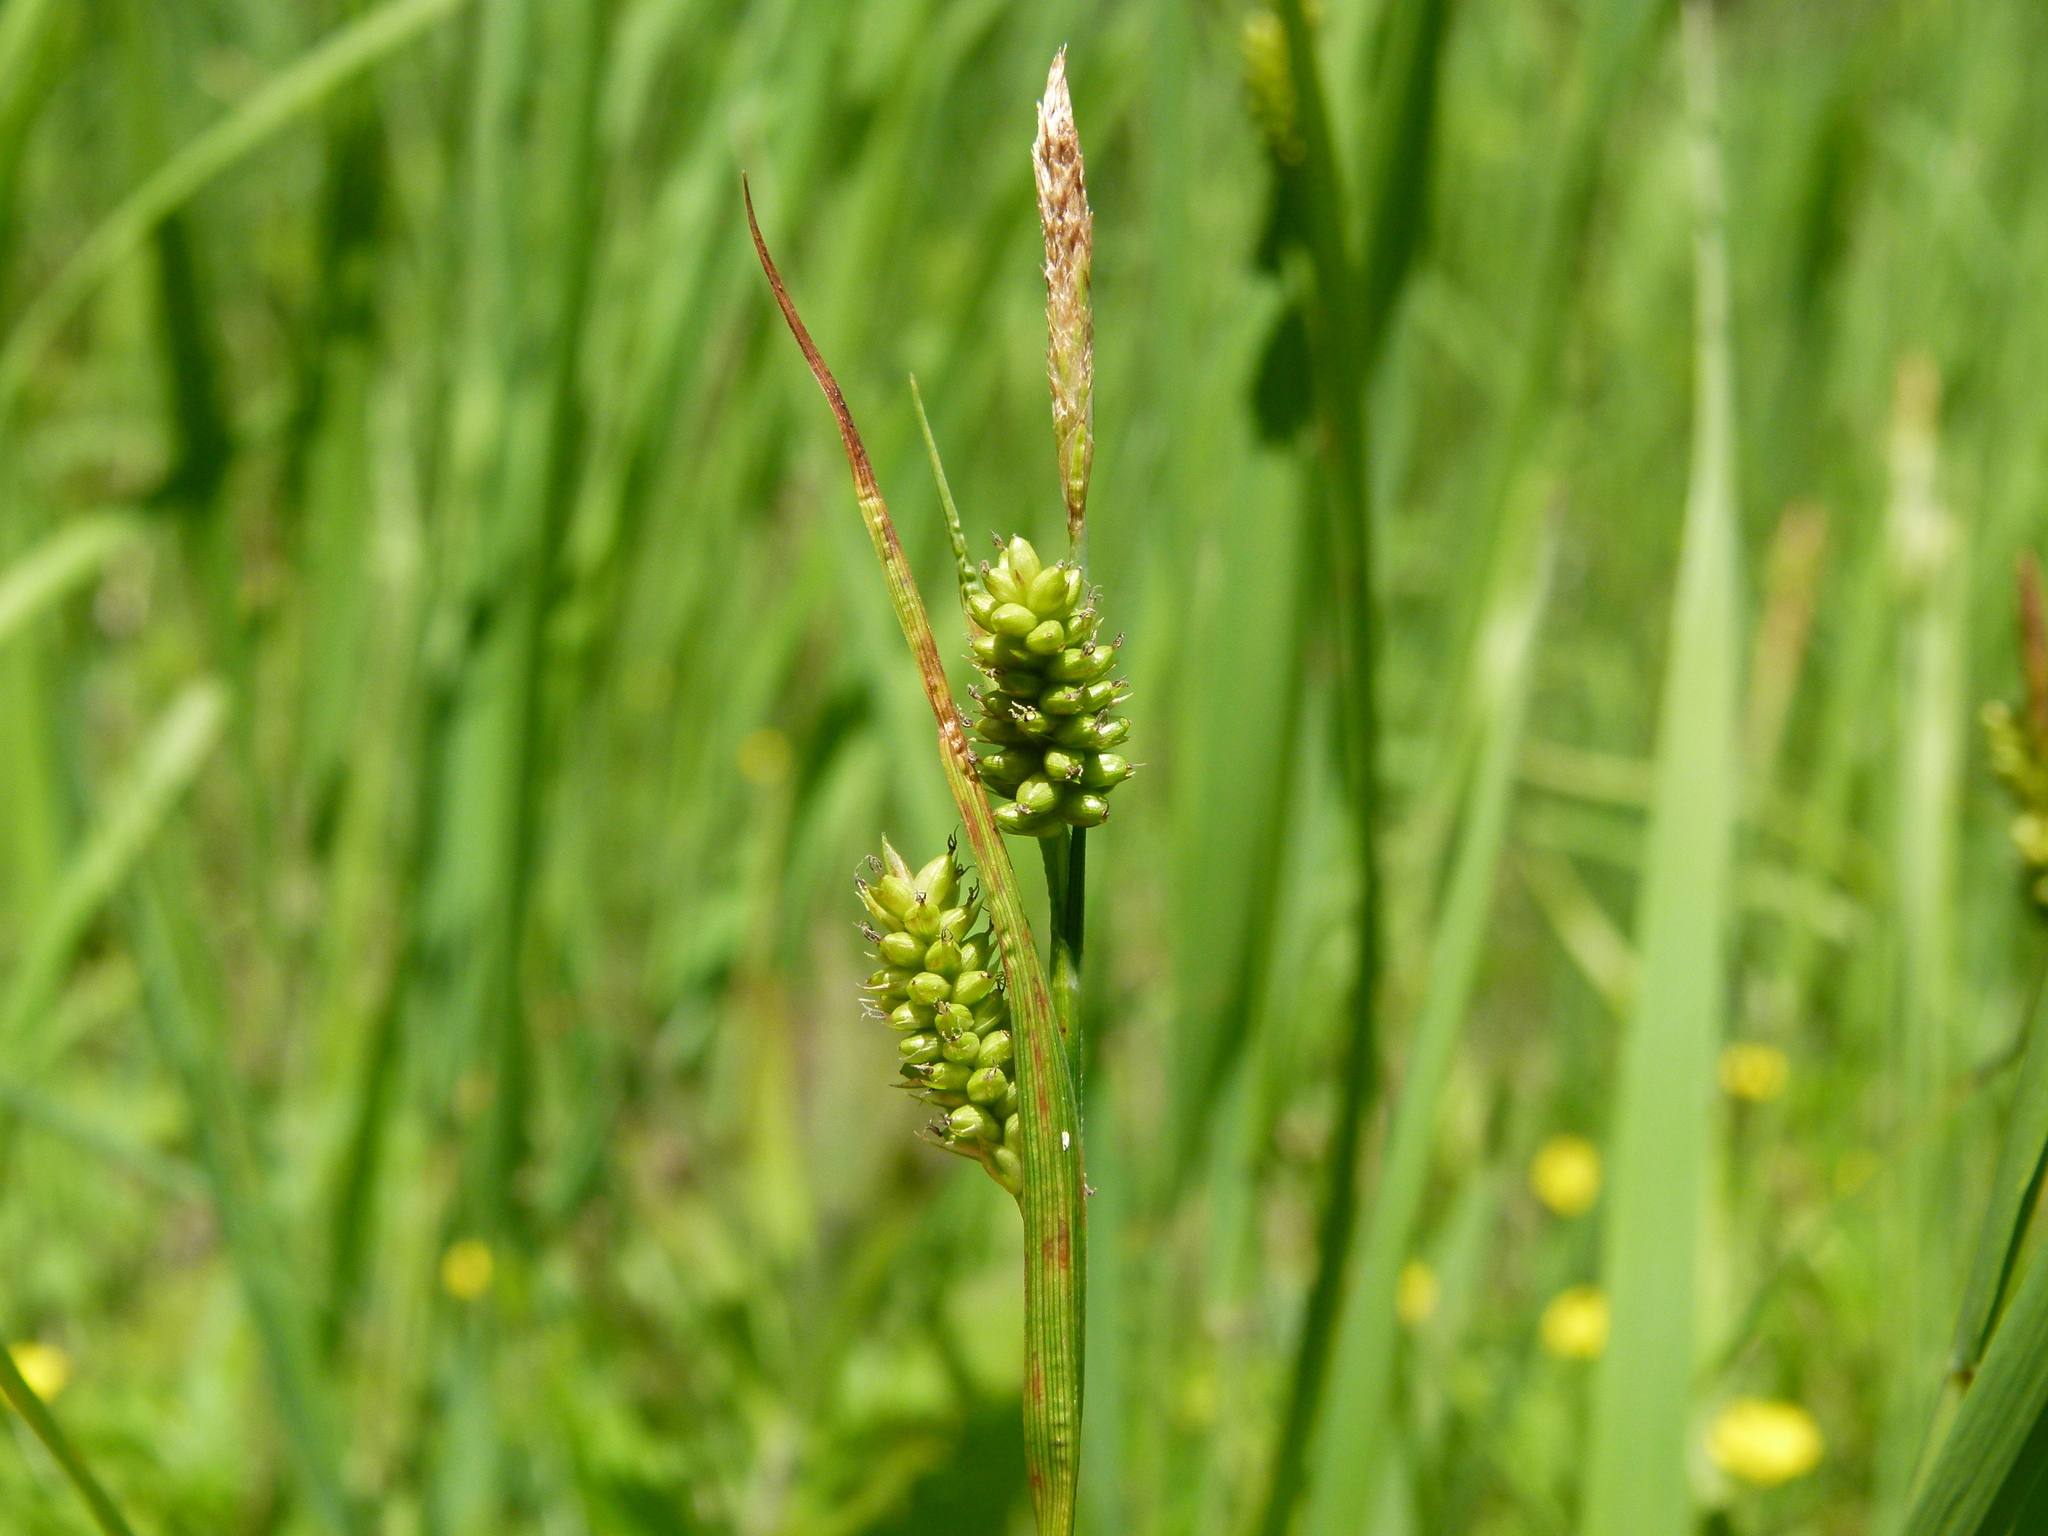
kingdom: Plantae
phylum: Tracheophyta
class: Liliopsida
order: Poales
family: Cyperaceae
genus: Carex
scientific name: Carex pallescens
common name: Pale sedge
